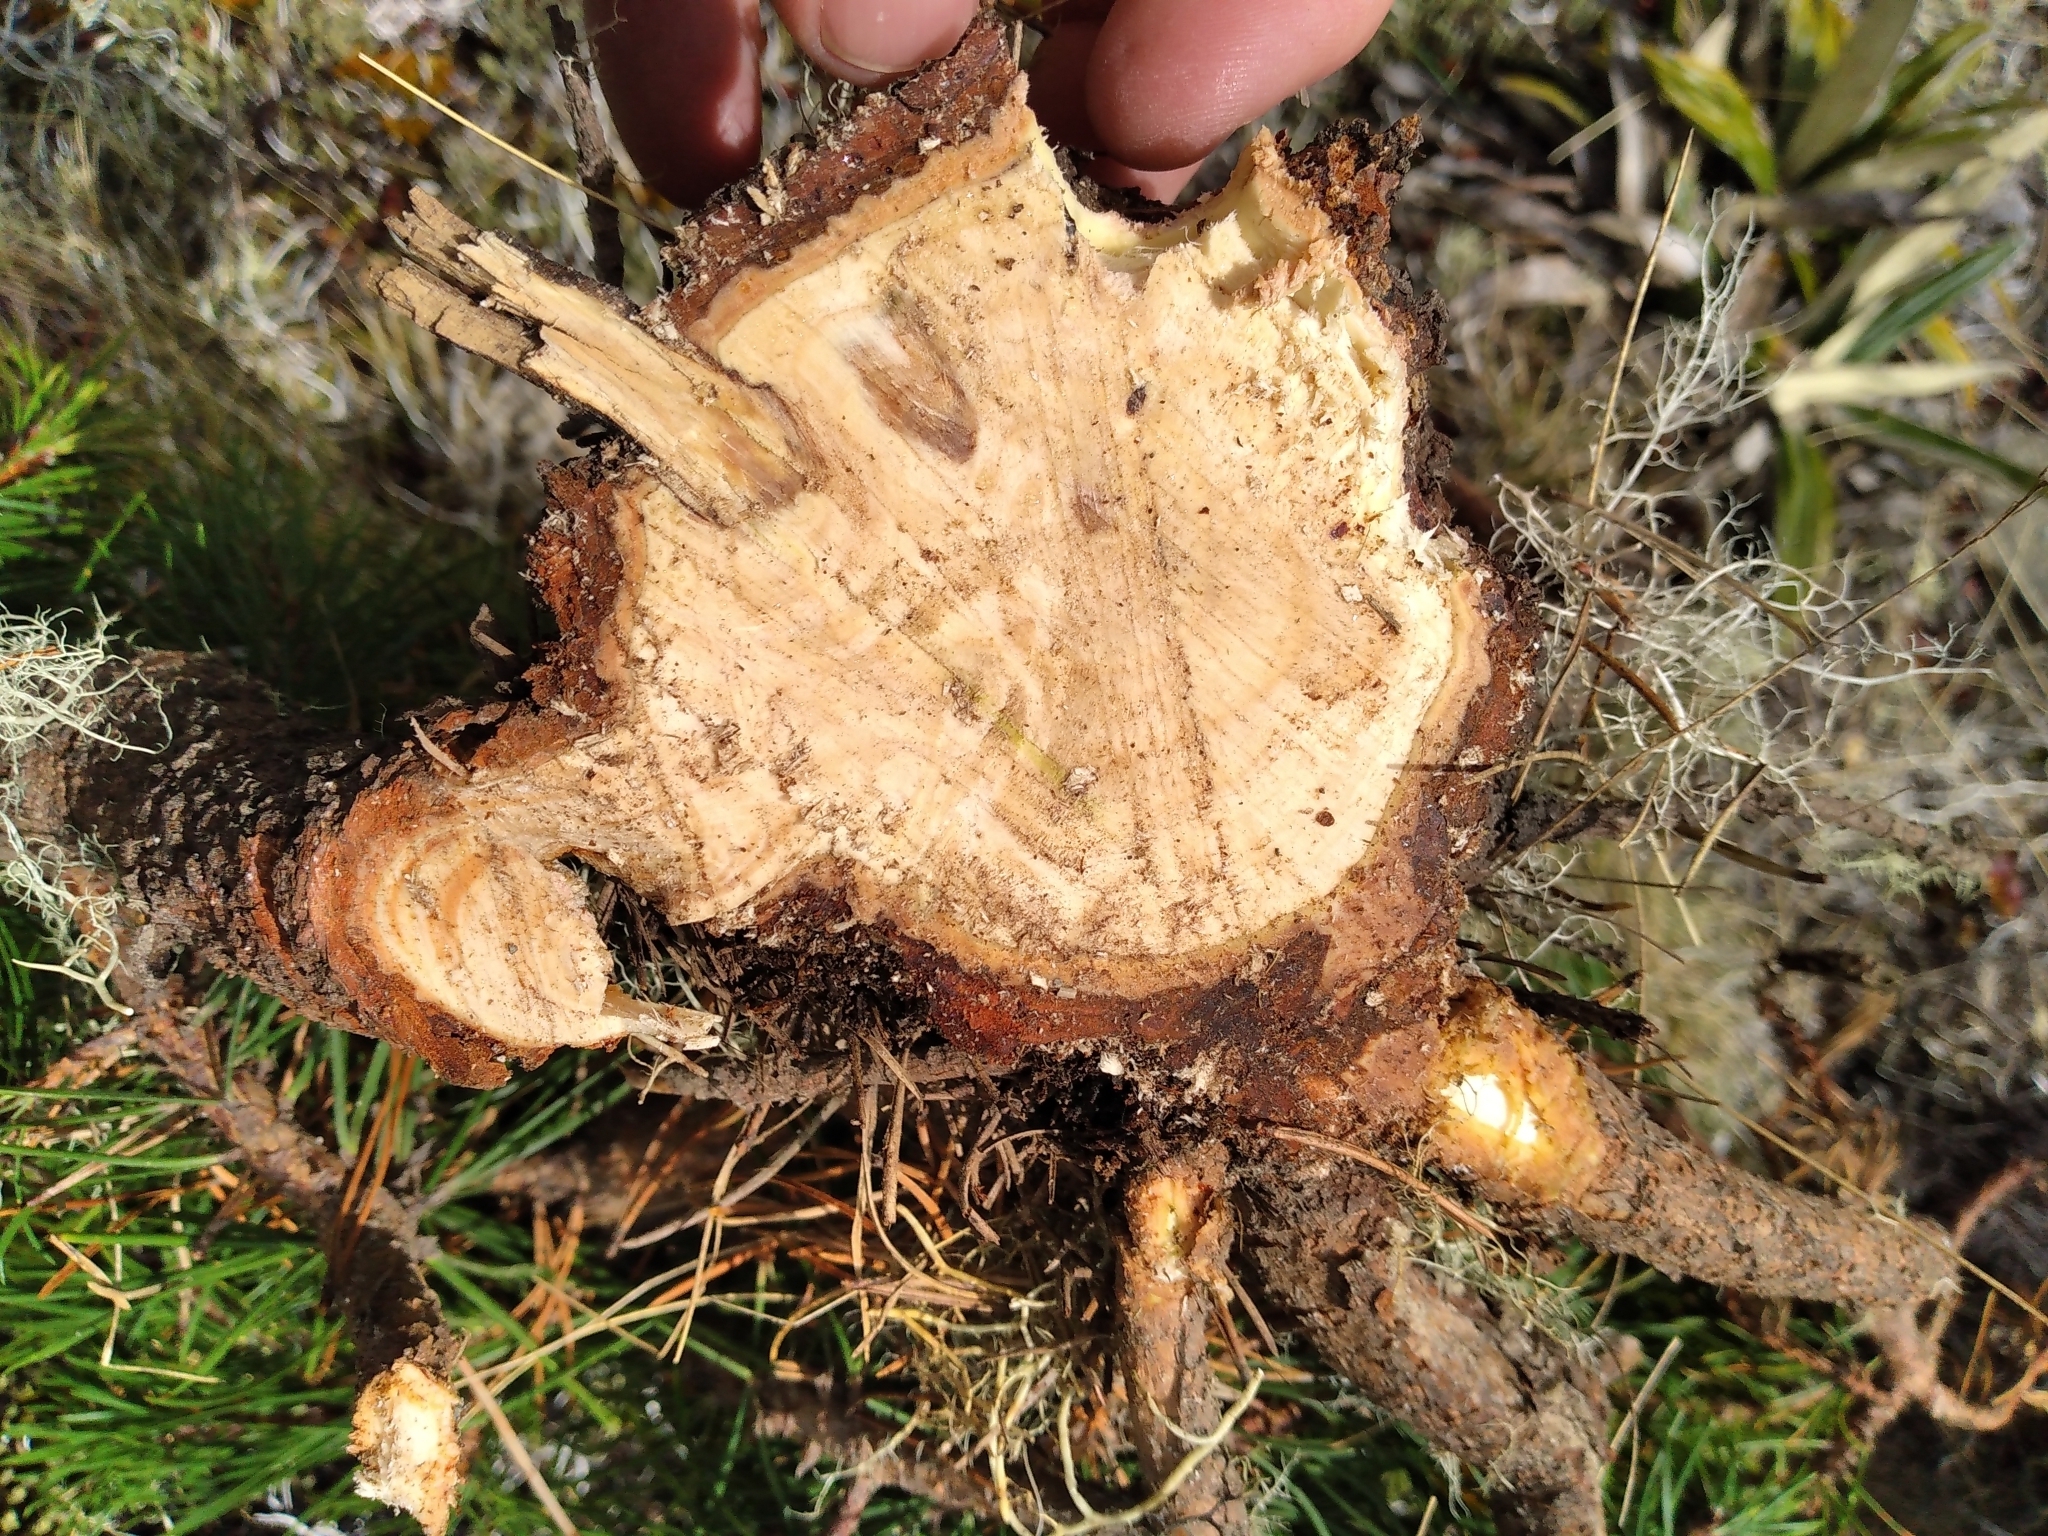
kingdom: Plantae
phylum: Tracheophyta
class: Pinopsida
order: Pinales
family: Pinaceae
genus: Pinus
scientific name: Pinus contorta
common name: Lodgepole pine
